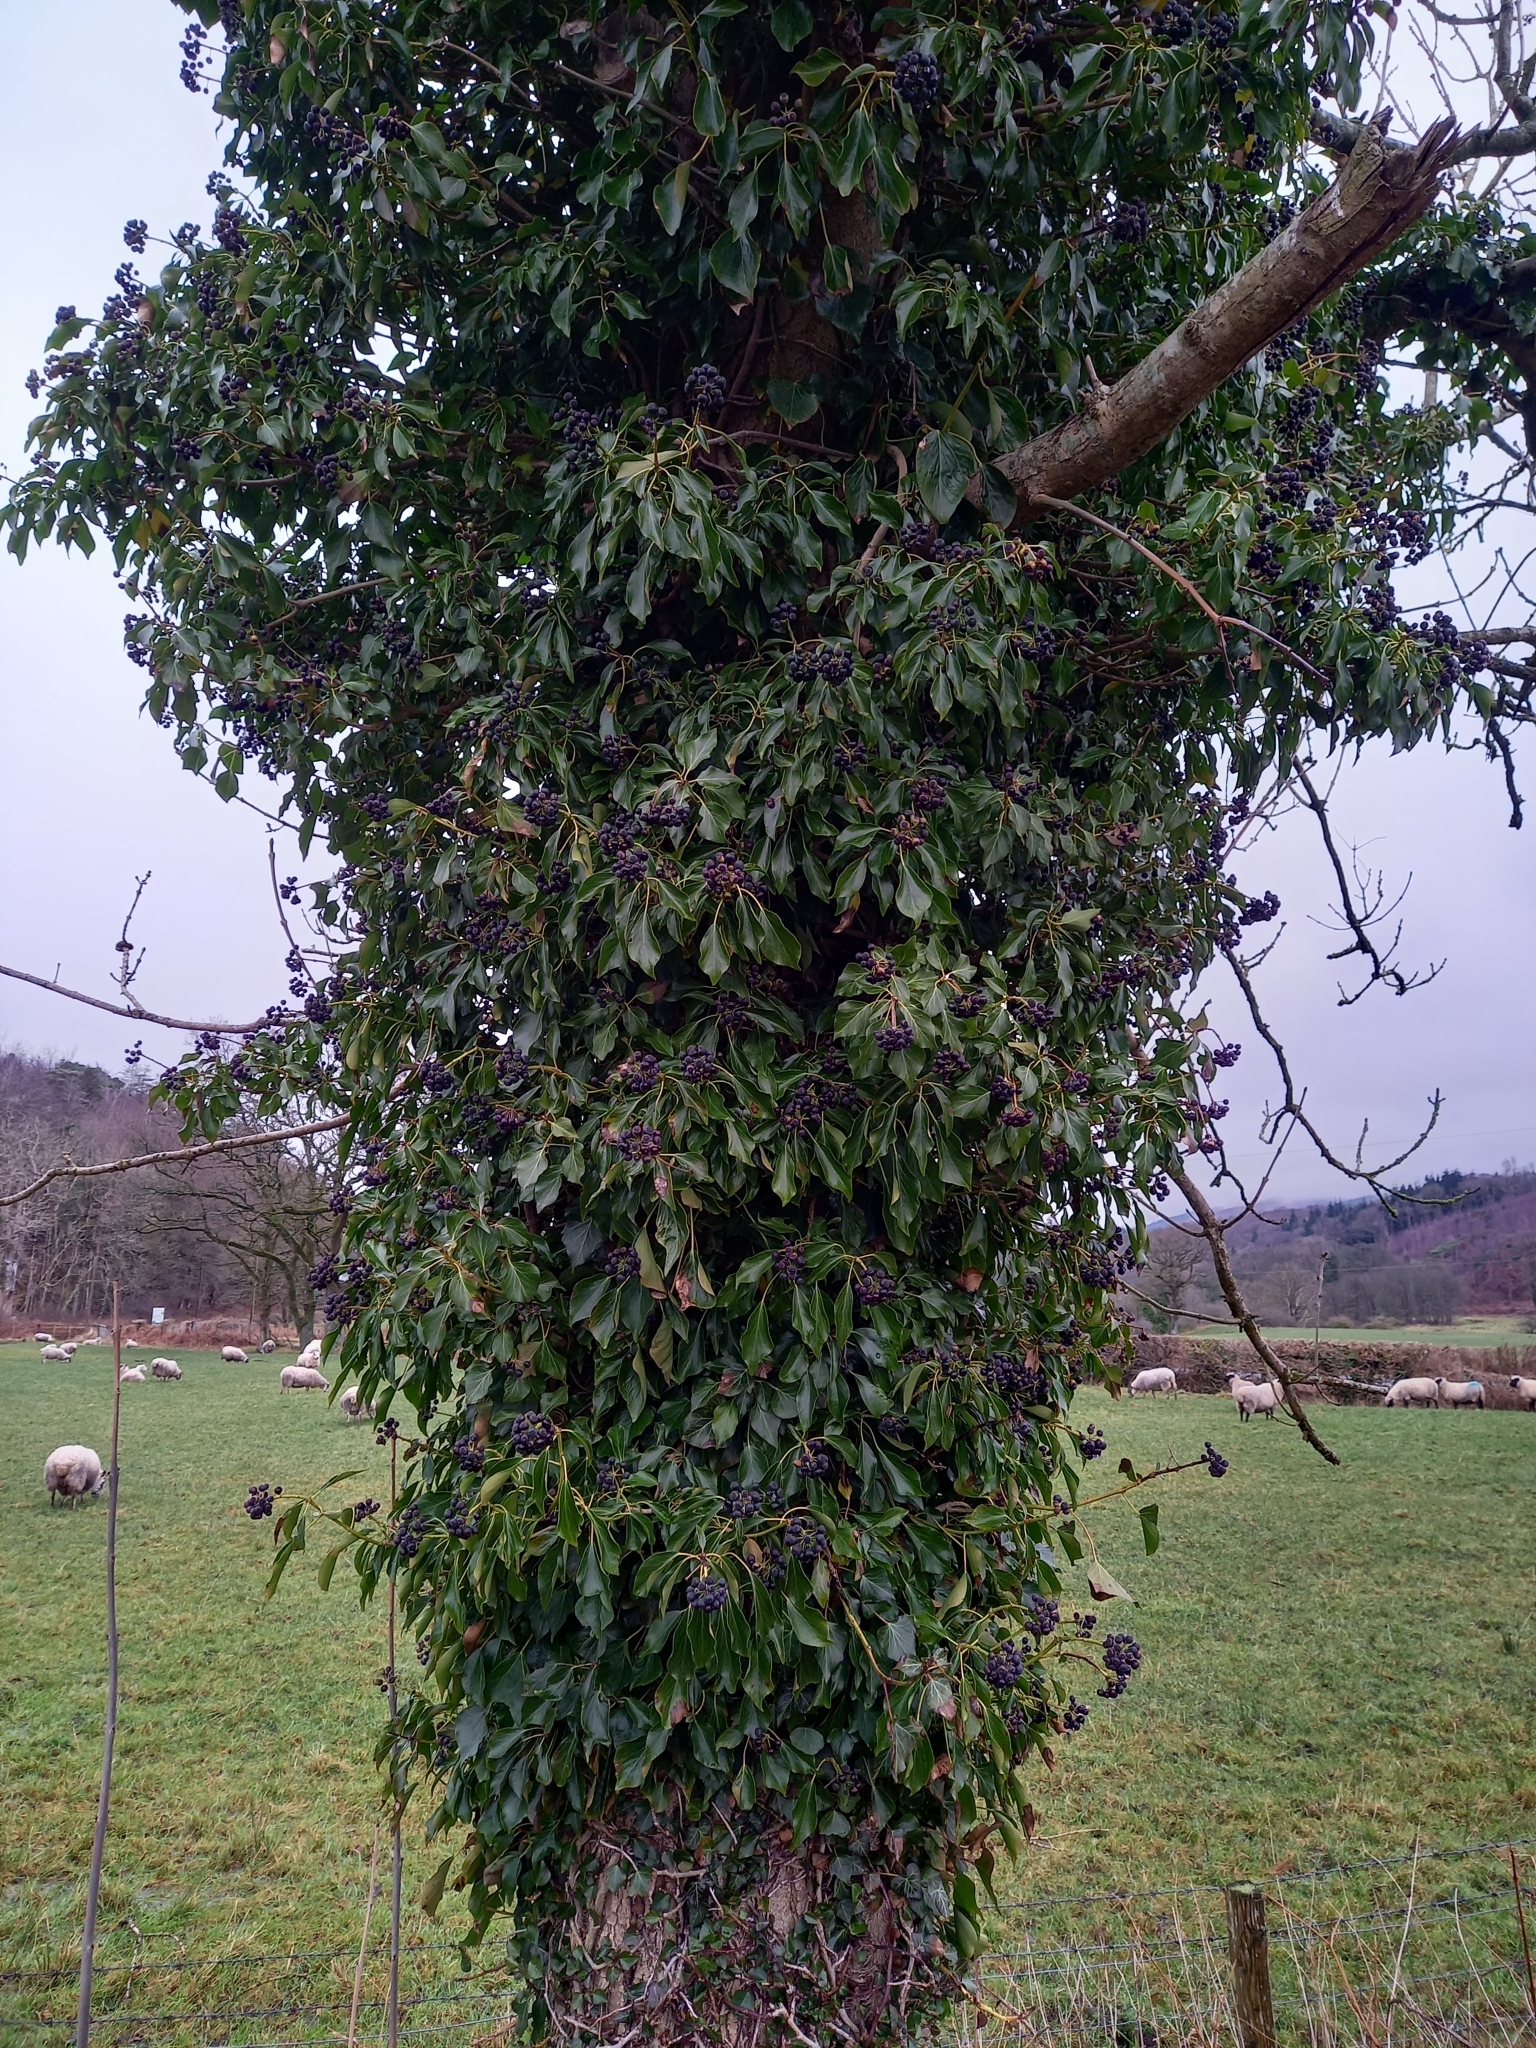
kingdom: Plantae
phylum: Tracheophyta
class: Magnoliopsida
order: Apiales
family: Araliaceae
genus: Hedera
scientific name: Hedera helix
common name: Ivy
